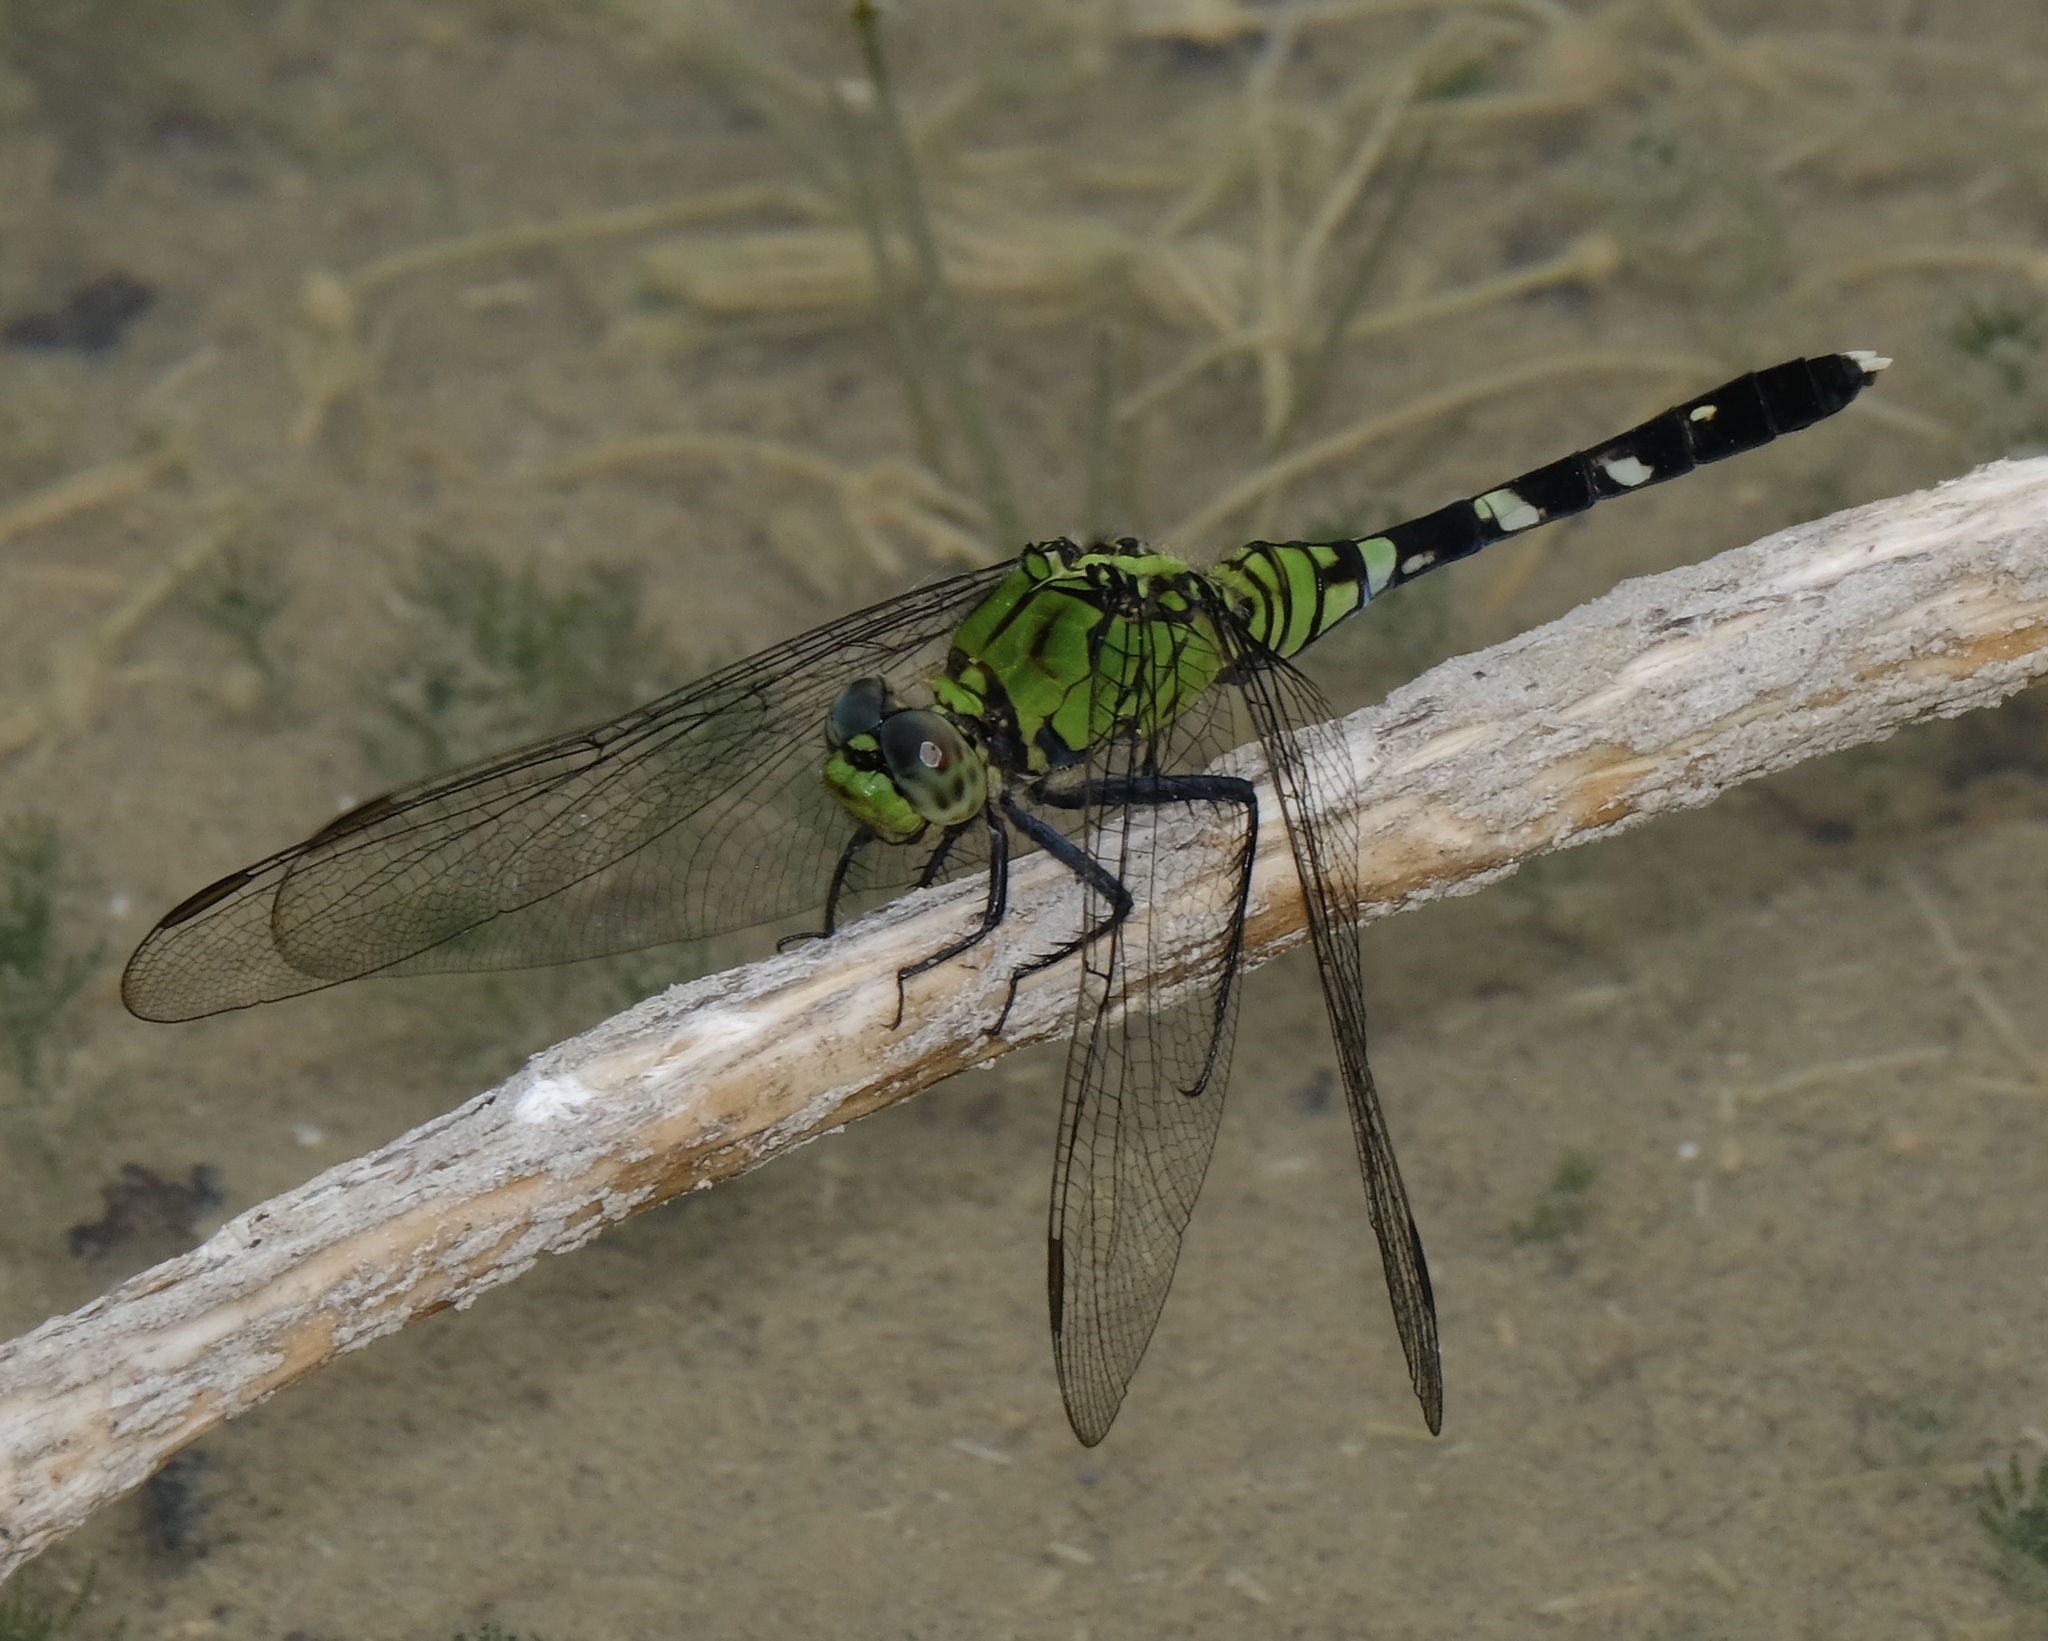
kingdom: Animalia
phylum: Arthropoda
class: Insecta
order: Odonata
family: Libellulidae
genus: Erythemis
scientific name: Erythemis simplicicollis
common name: Eastern pondhawk
